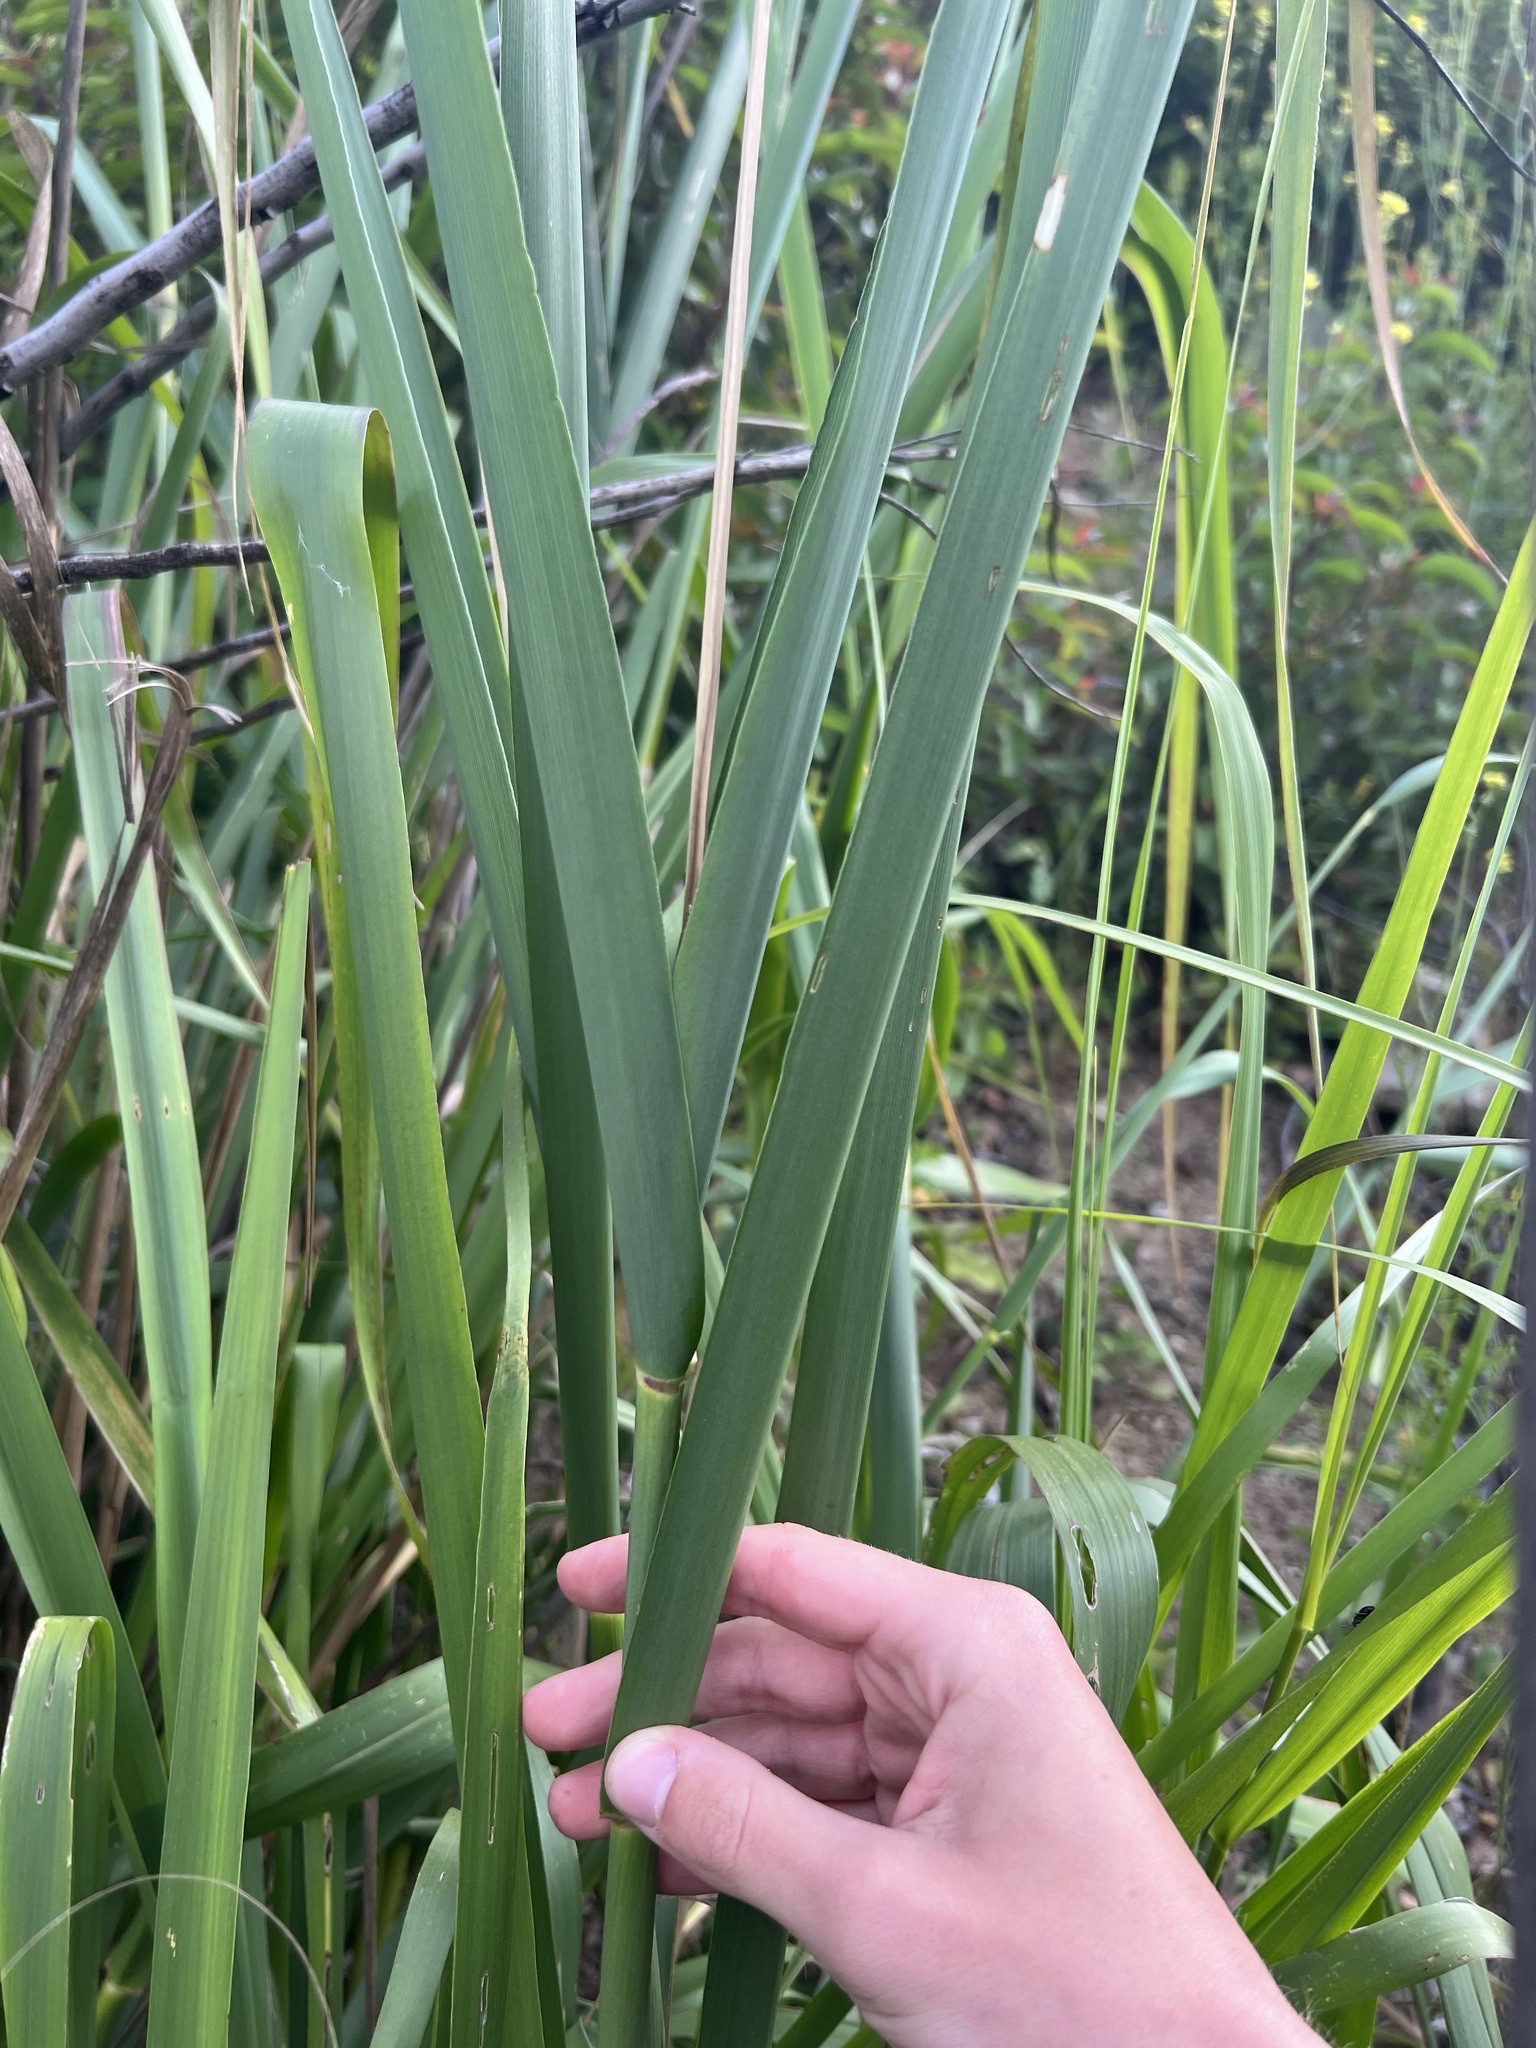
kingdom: Plantae
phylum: Tracheophyta
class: Liliopsida
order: Poales
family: Poaceae
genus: Leymus
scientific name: Leymus condensatus
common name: Giant wild rye
